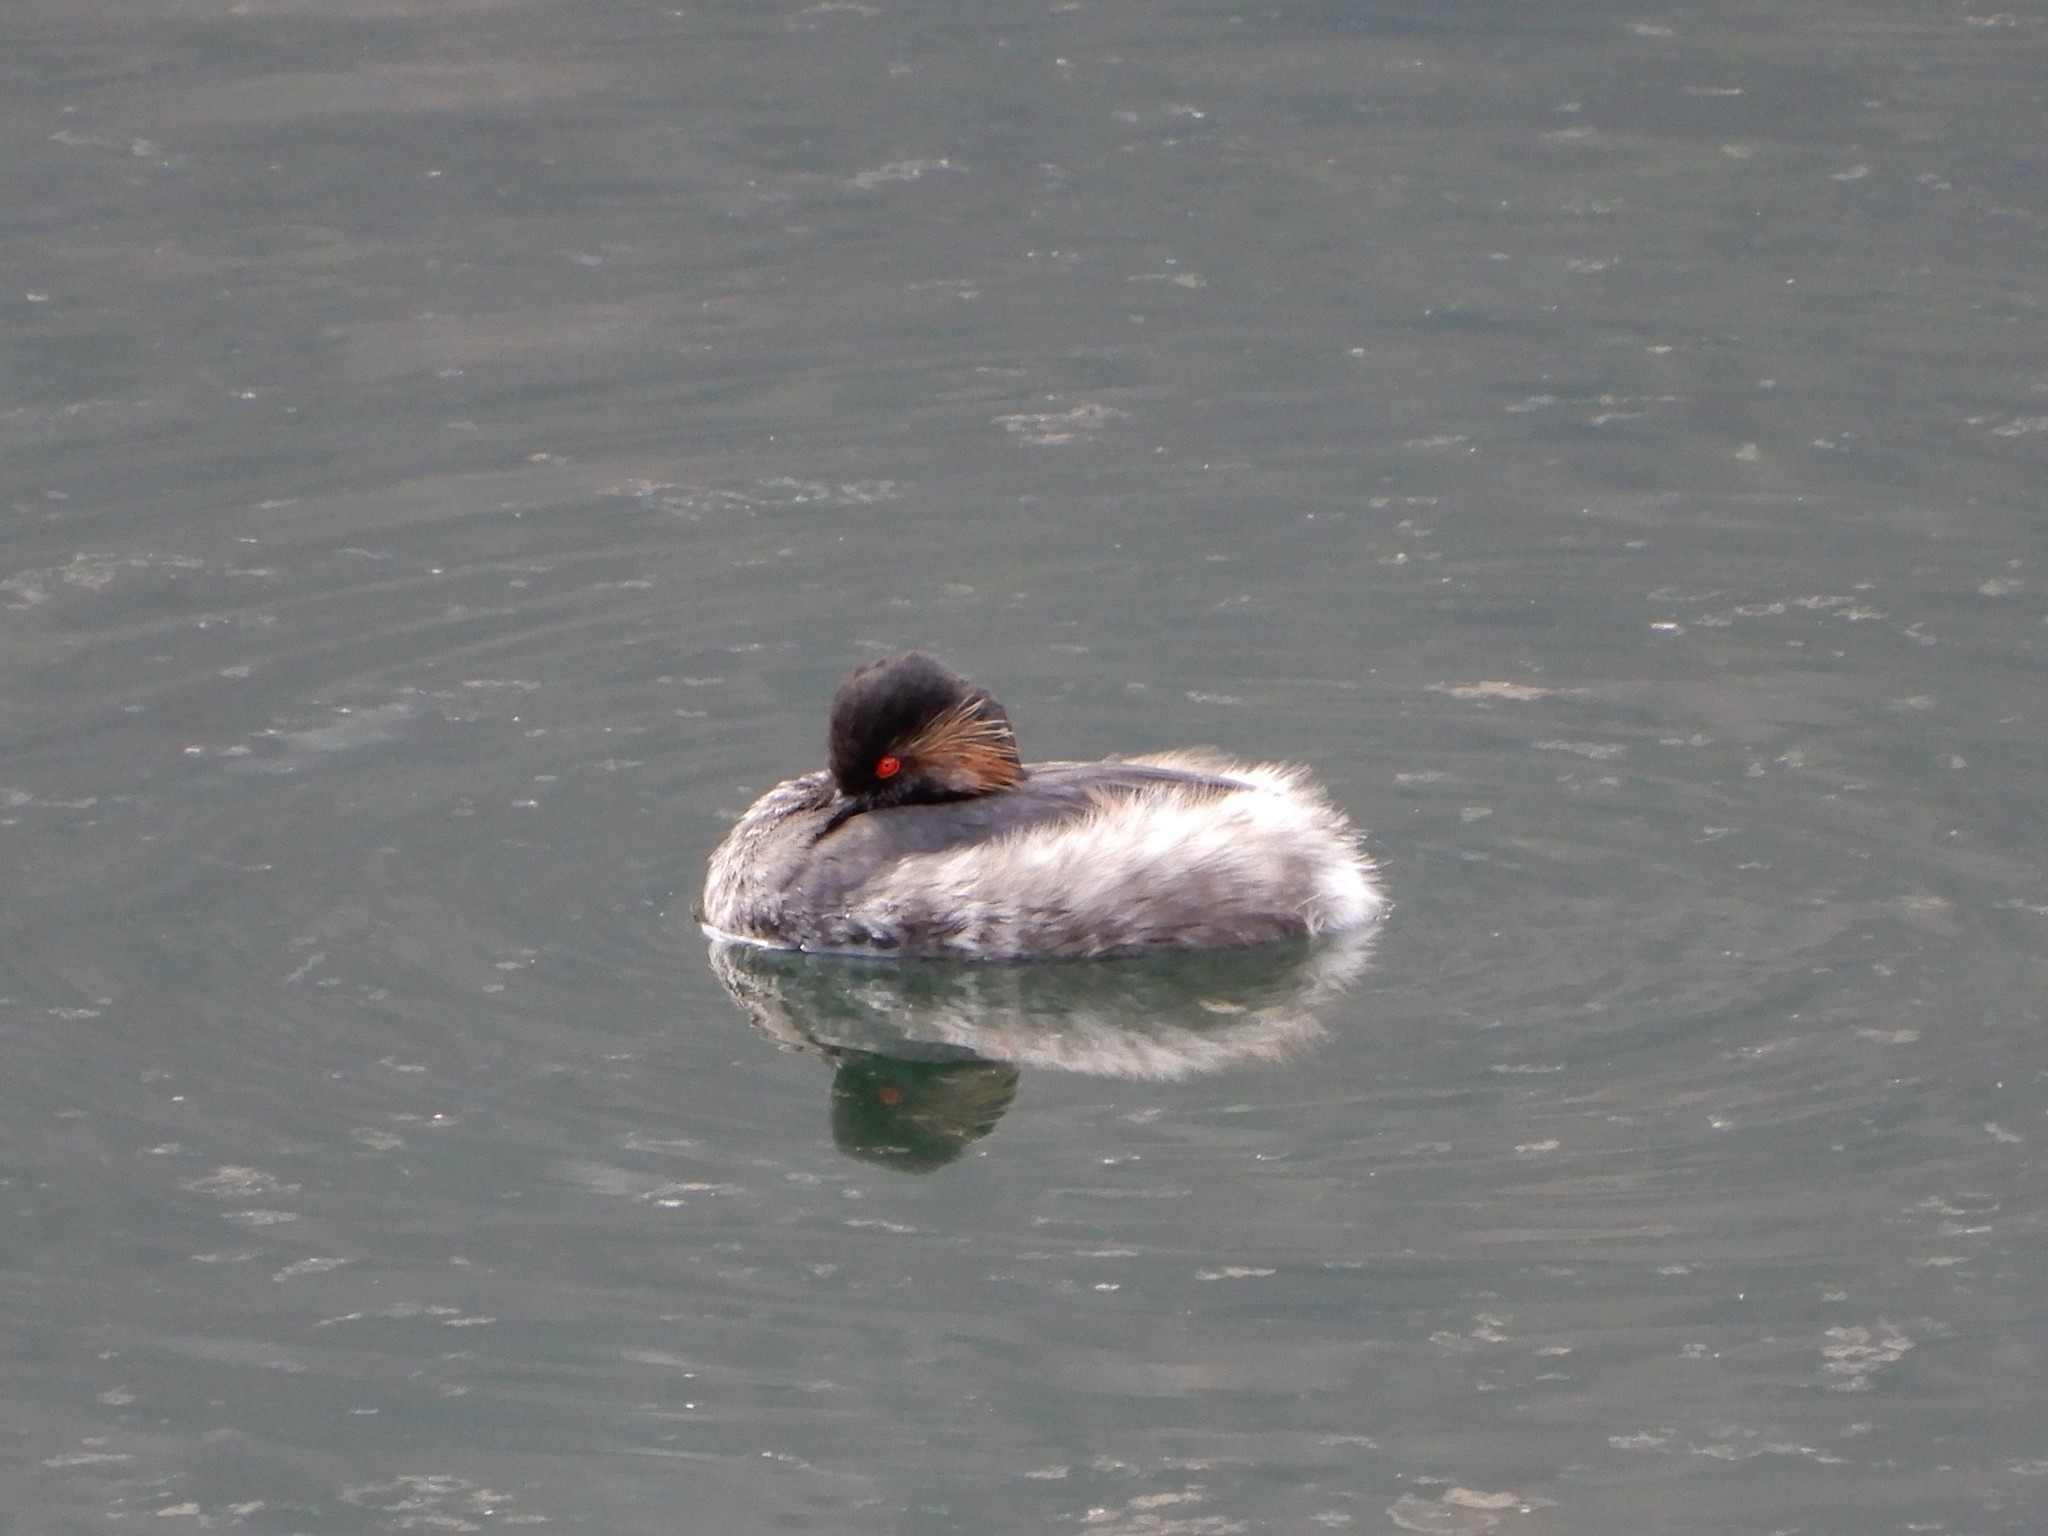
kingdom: Animalia
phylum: Chordata
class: Aves
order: Podicipediformes
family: Podicipedidae
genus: Podiceps
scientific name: Podiceps nigricollis
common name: Black-necked grebe
